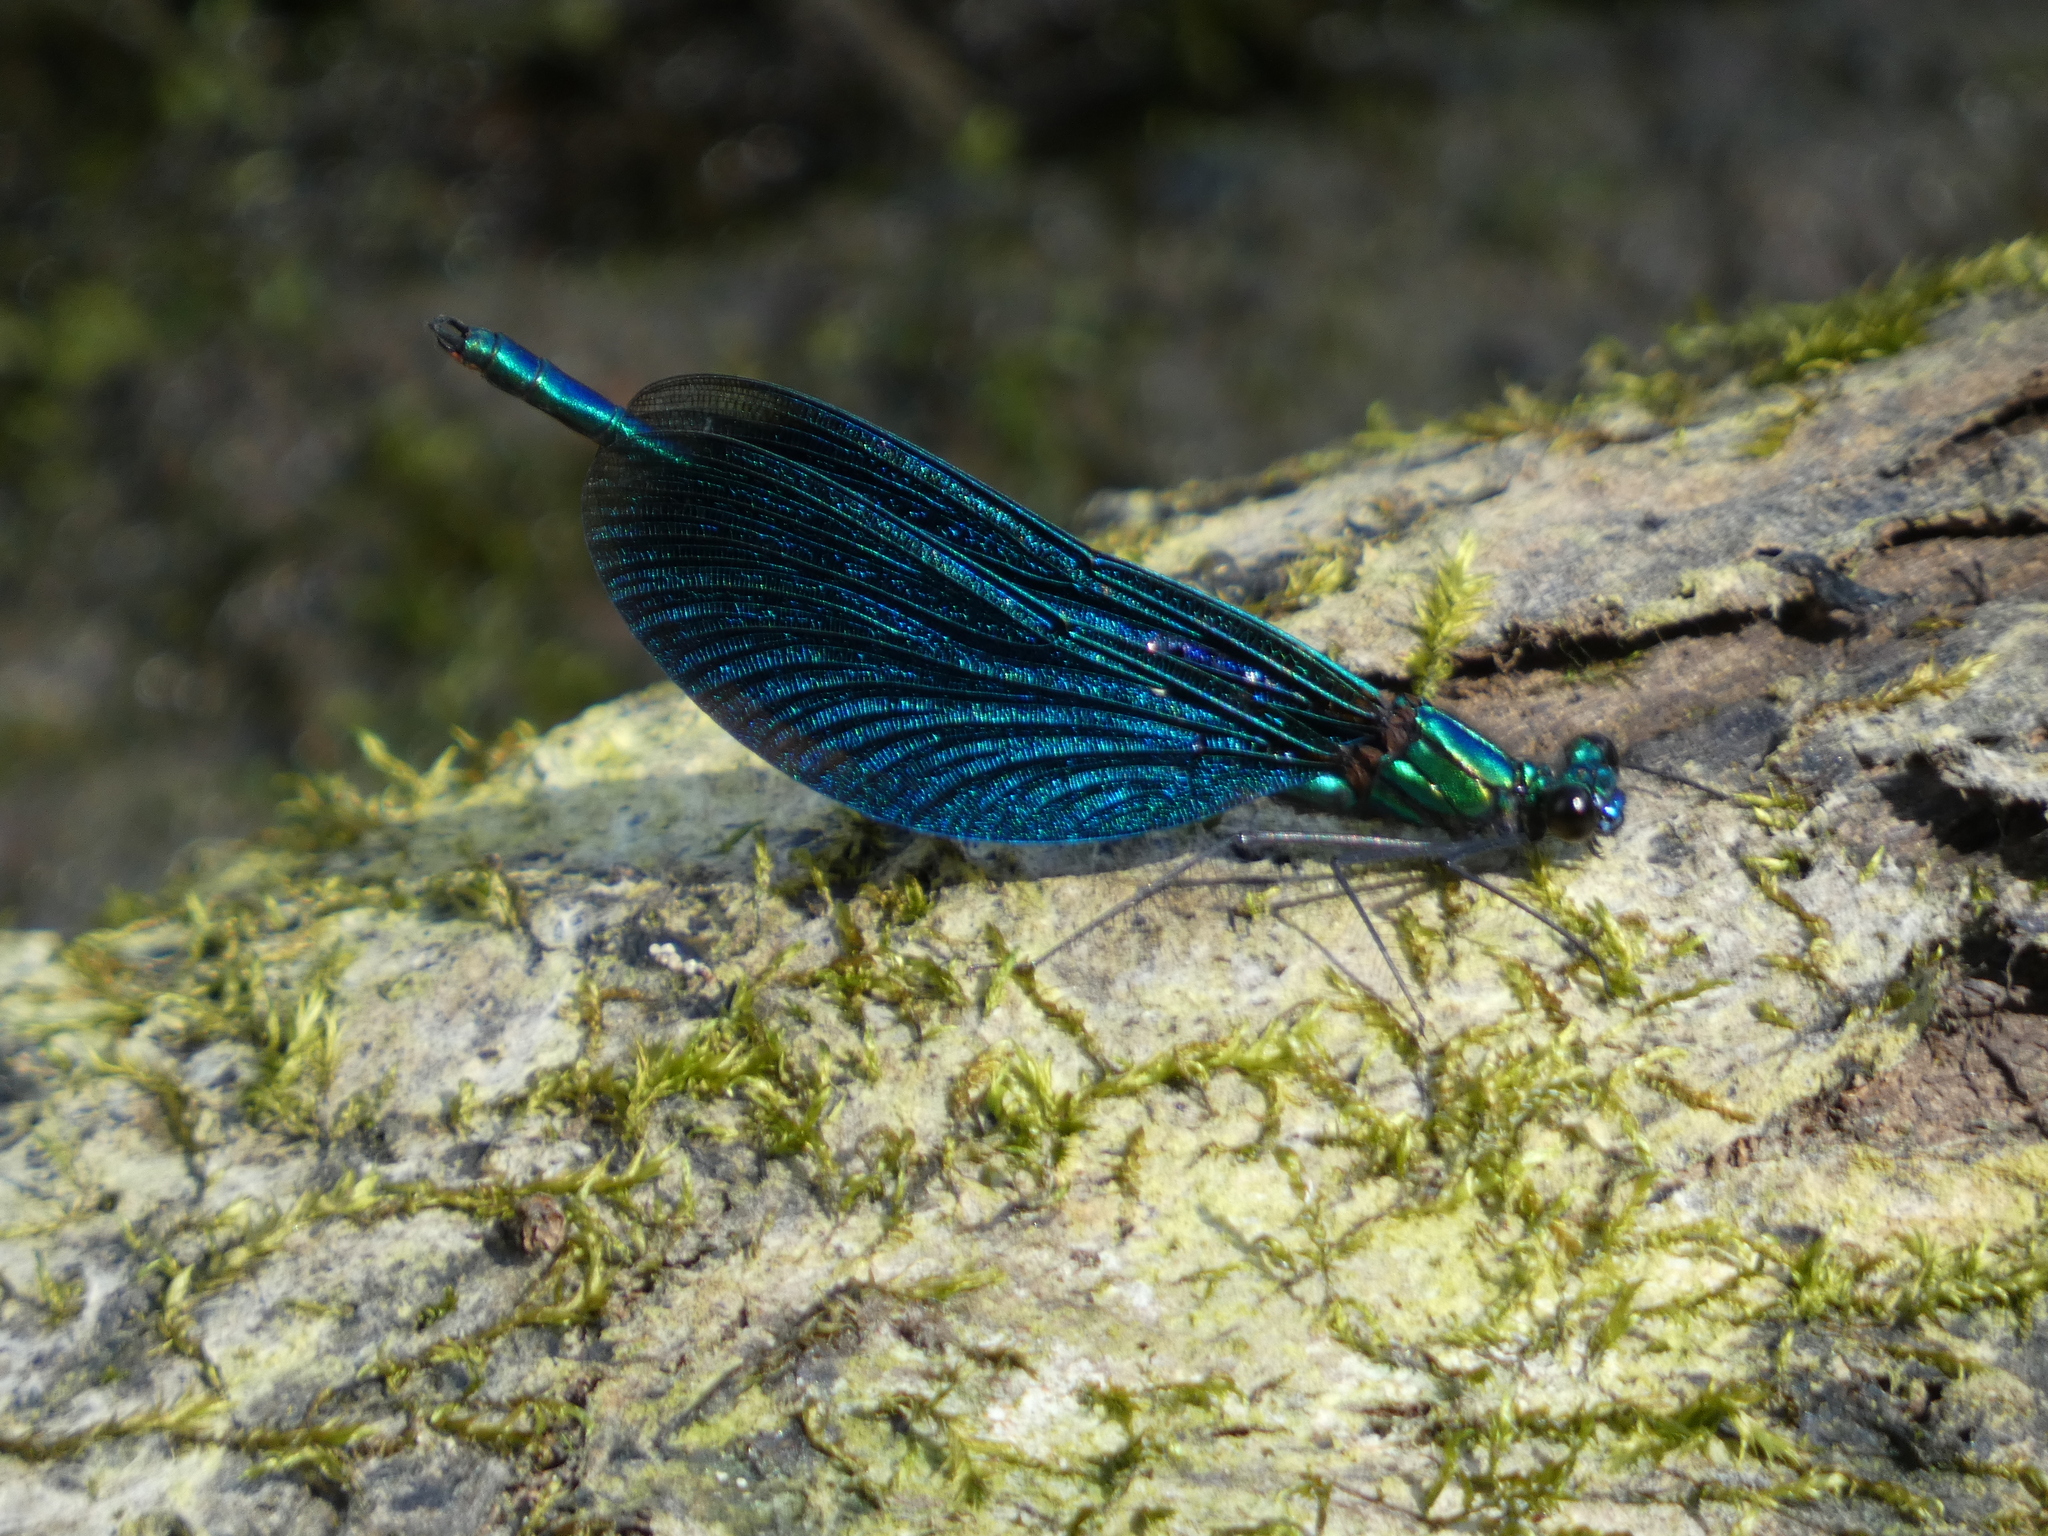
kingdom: Animalia
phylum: Arthropoda
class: Insecta
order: Odonata
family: Calopterygidae
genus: Calopteryx
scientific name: Calopteryx virgo
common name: Beautiful demoiselle
